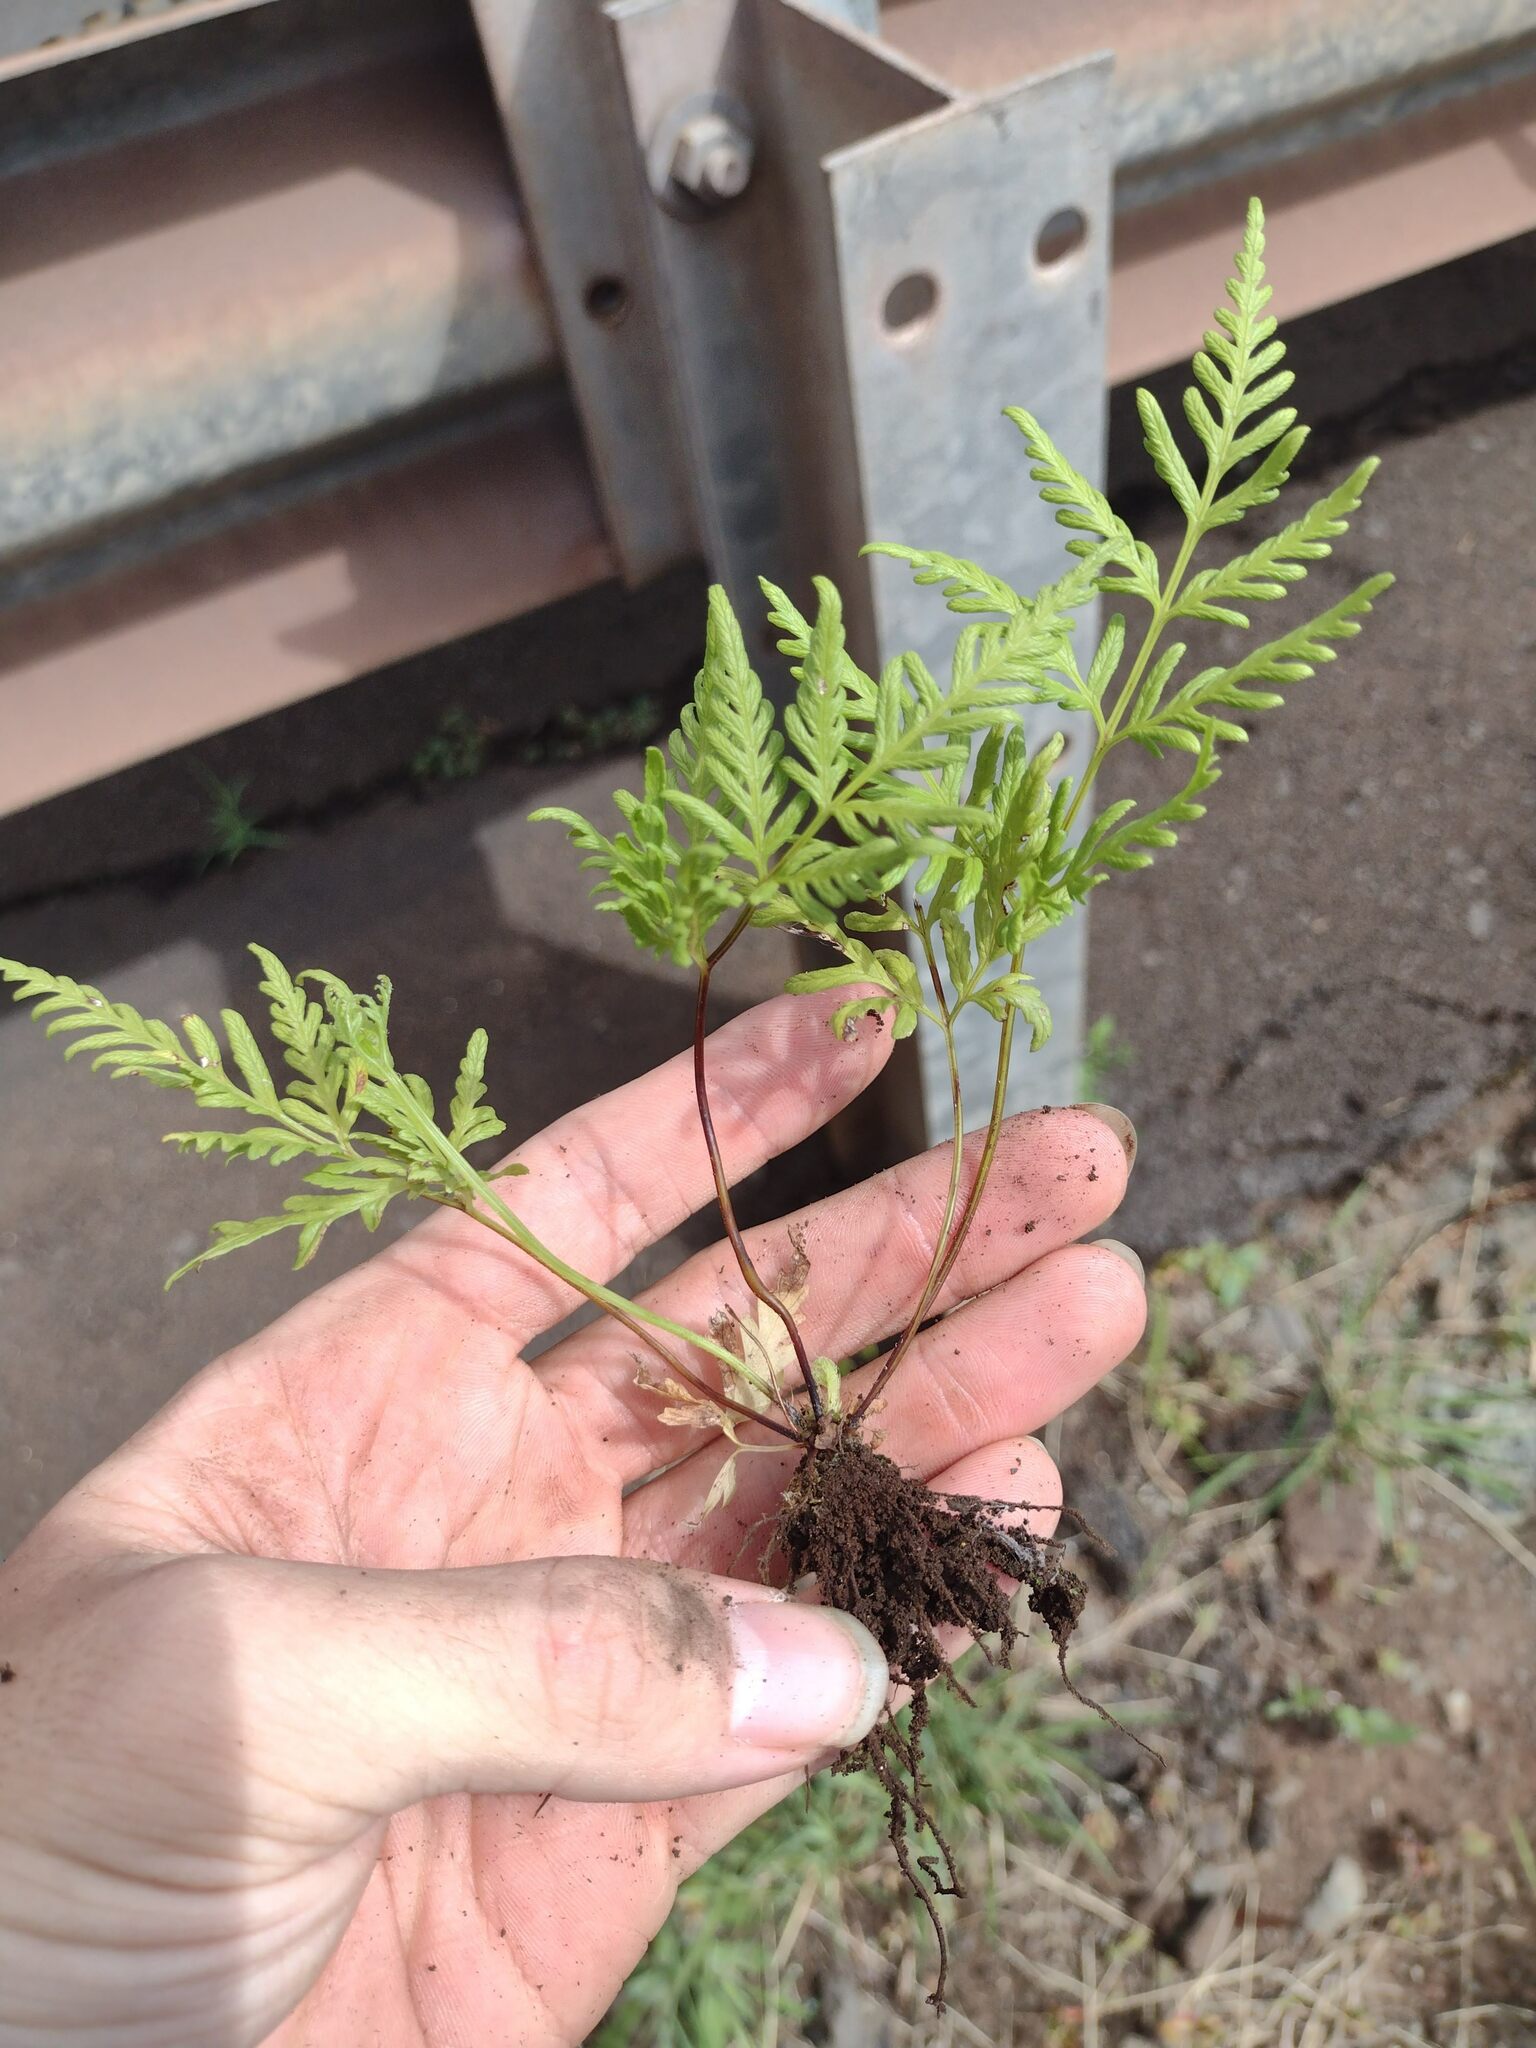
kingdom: Plantae
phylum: Tracheophyta
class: Polypodiopsida
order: Polypodiales
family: Pteridaceae
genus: Pteris
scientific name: Pteris tremula
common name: Australian brake
